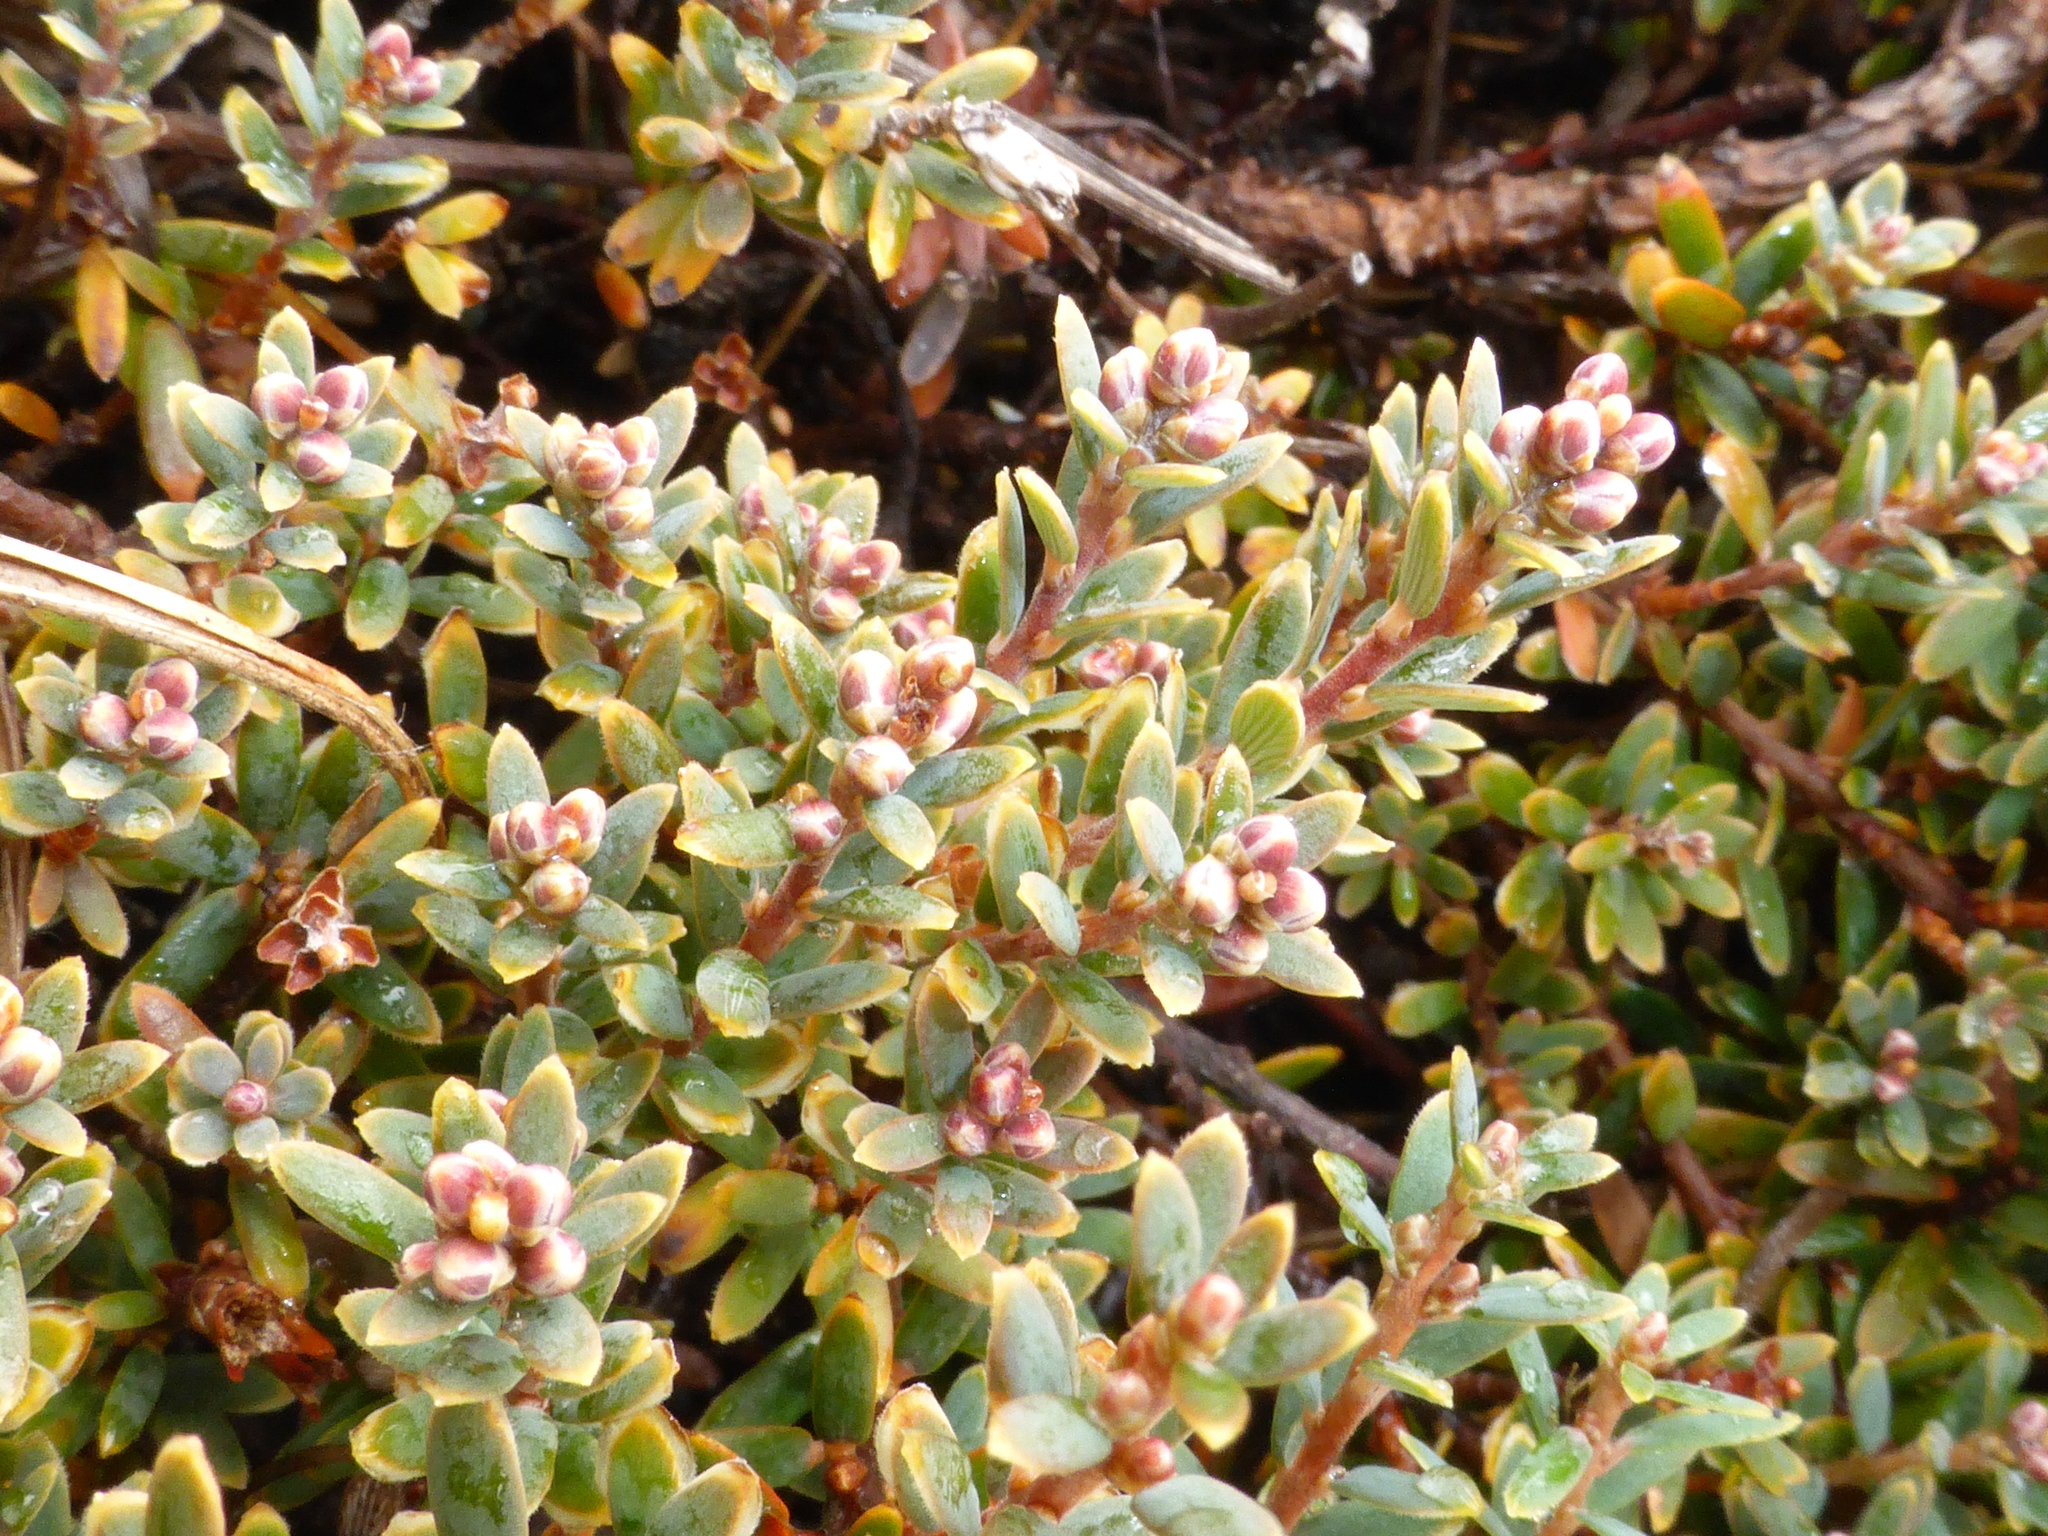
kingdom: Plantae
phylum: Tracheophyta
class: Magnoliopsida
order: Ericales
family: Ericaceae
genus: Acrothamnus
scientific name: Acrothamnus colensoi
